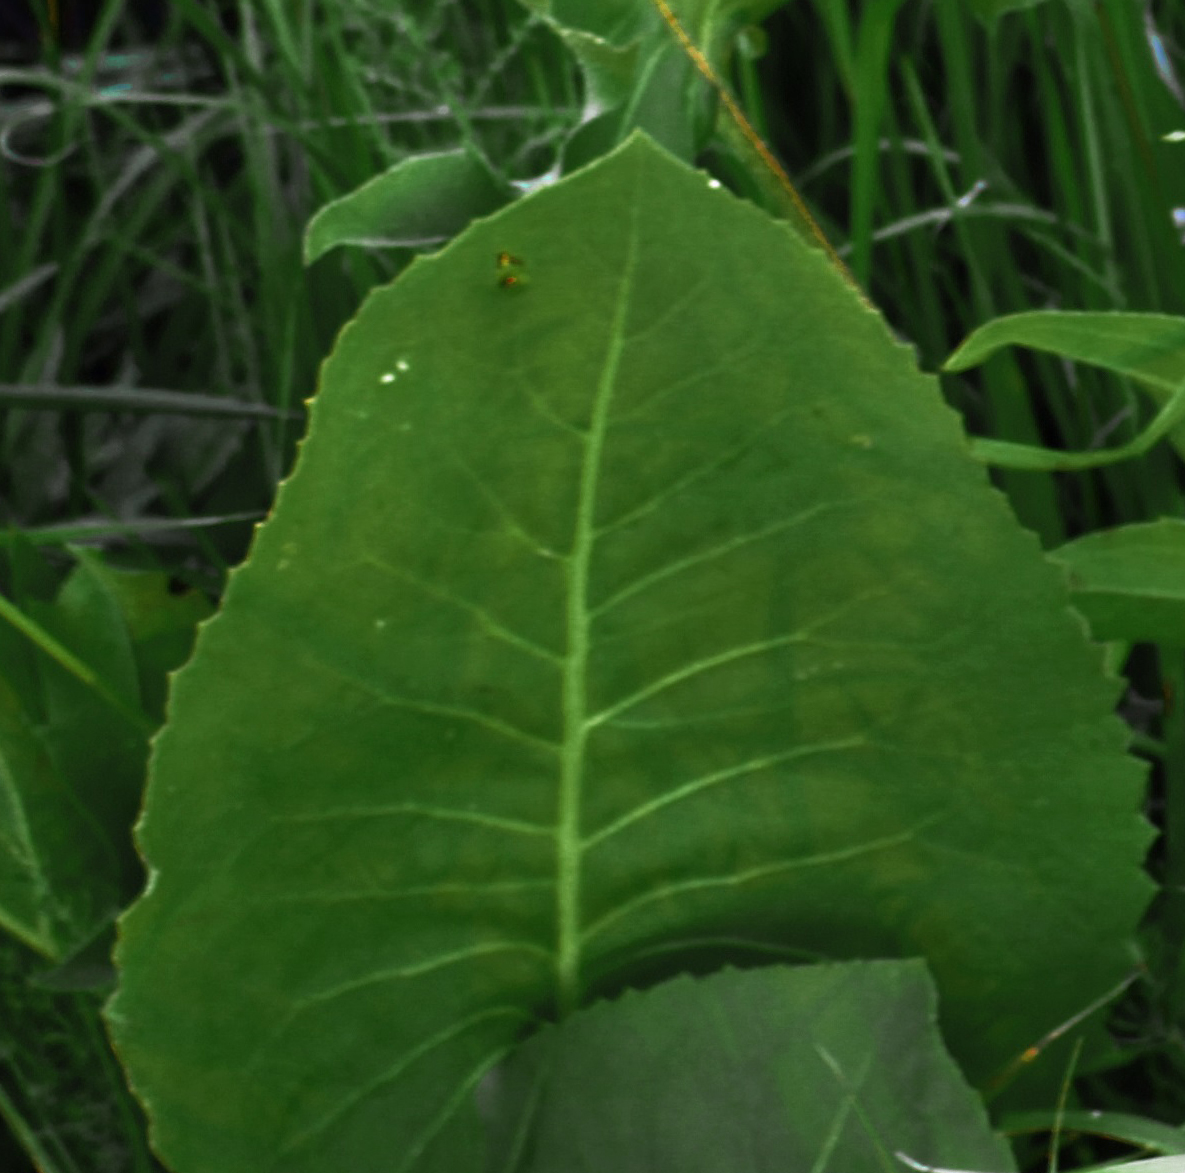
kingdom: Plantae
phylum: Tracheophyta
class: Magnoliopsida
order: Asterales
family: Asteraceae
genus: Silphium
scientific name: Silphium terebinthinaceum
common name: Basal-leaf rosinweed
